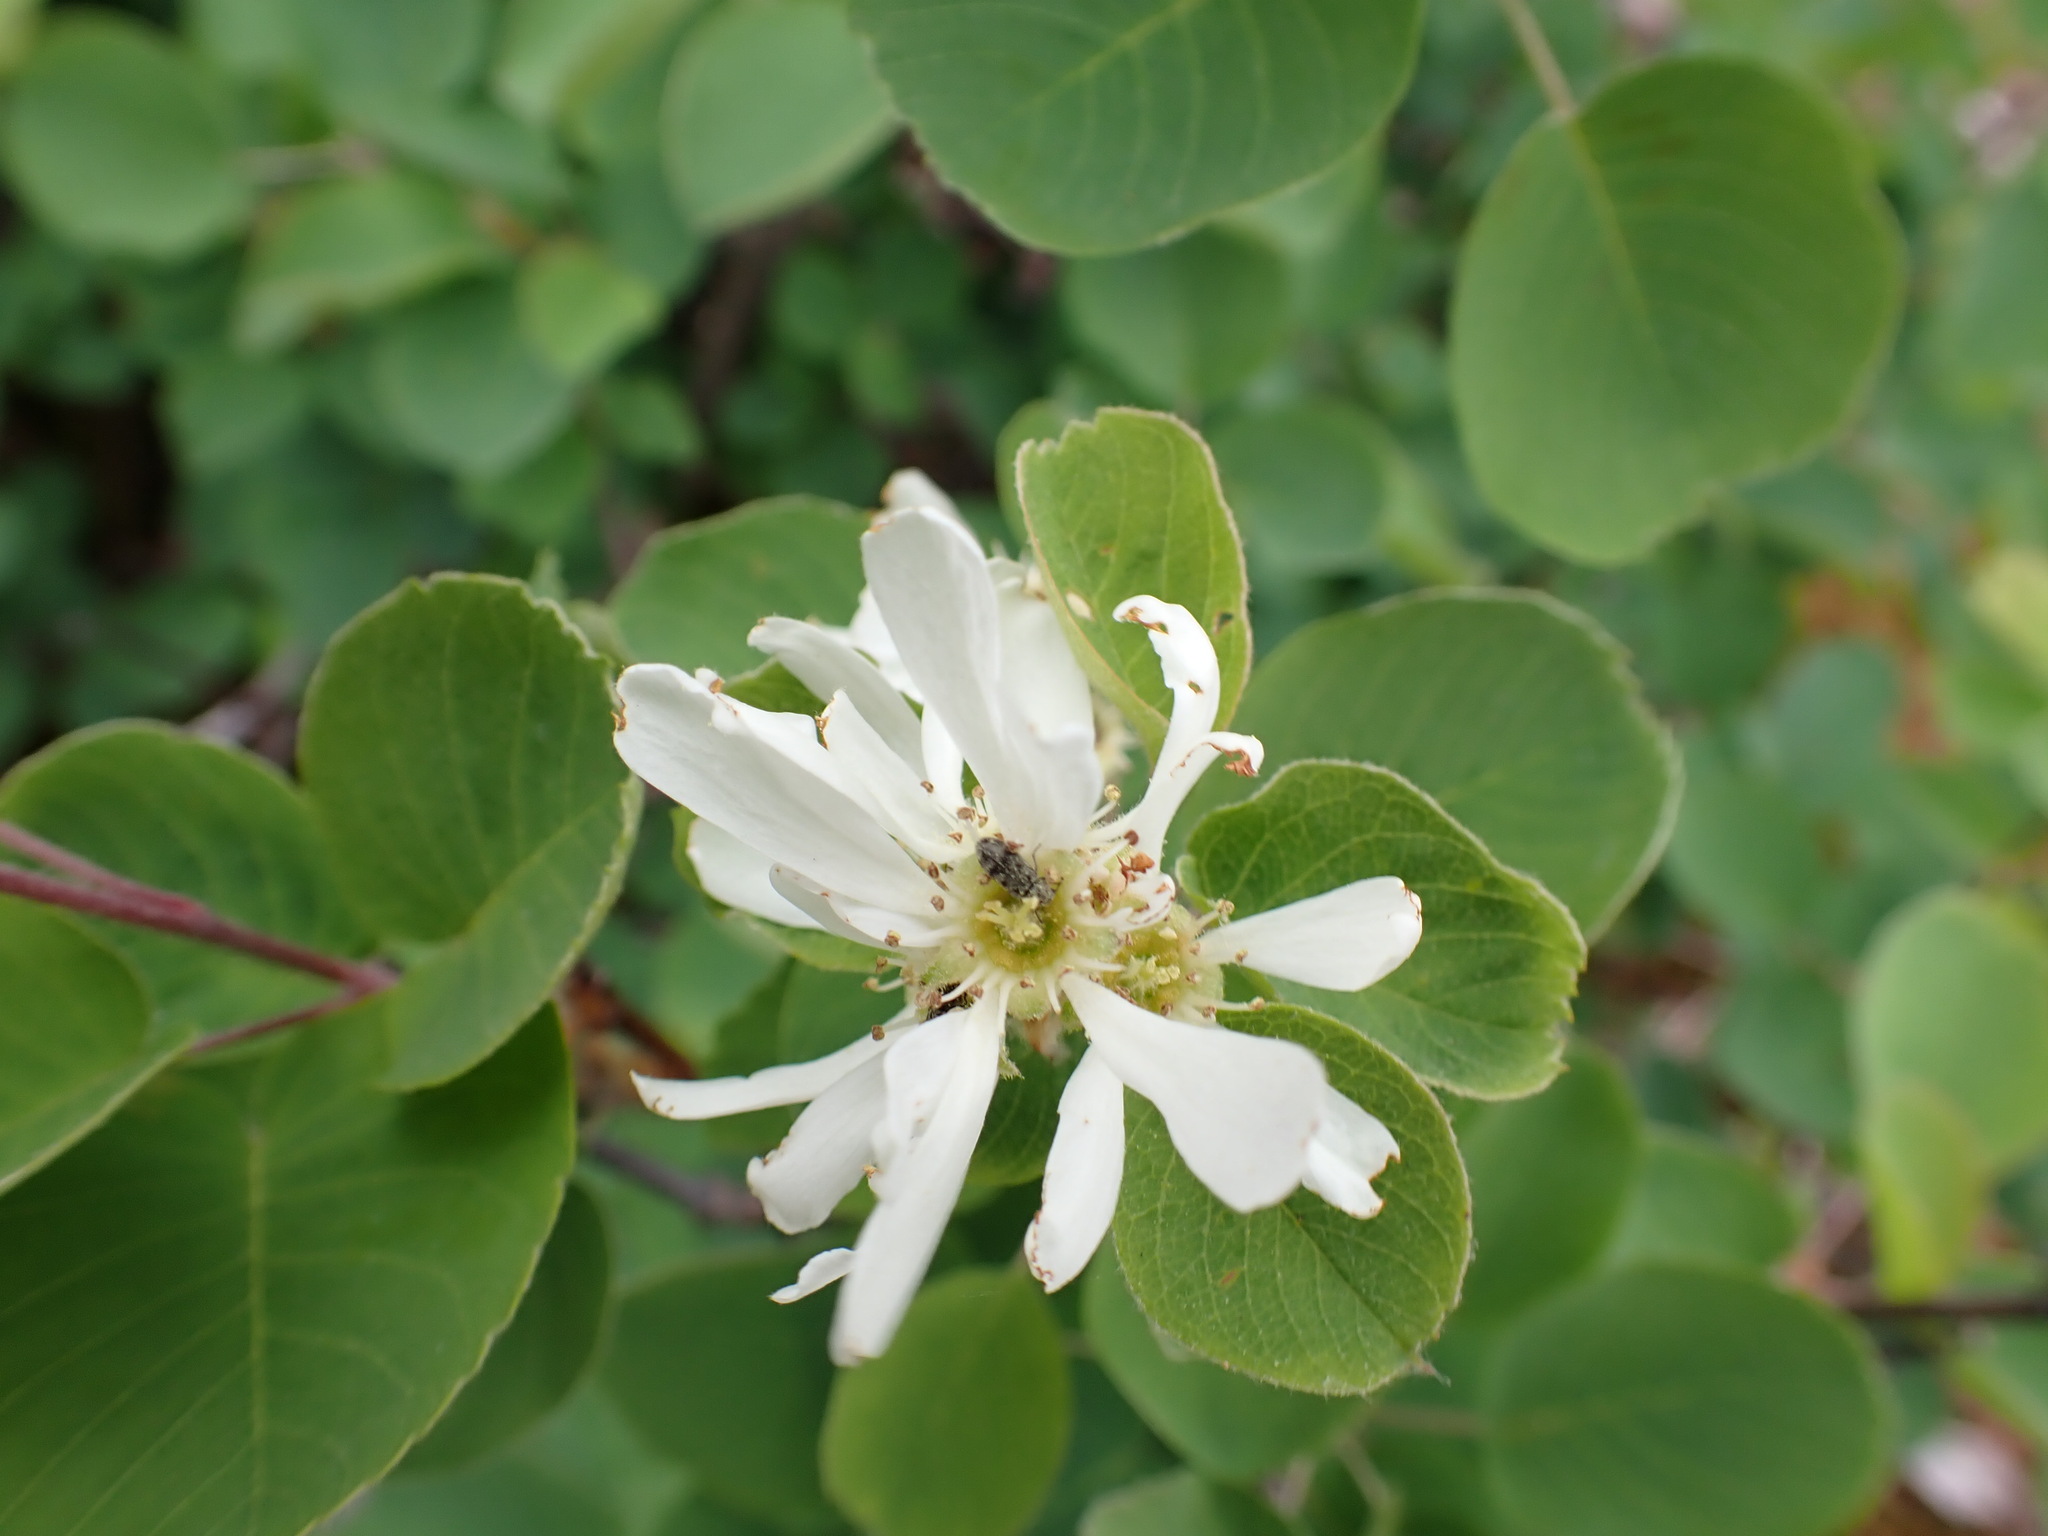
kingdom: Plantae
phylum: Tracheophyta
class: Magnoliopsida
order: Rosales
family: Rosaceae
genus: Amelanchier
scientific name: Amelanchier alnifolia
